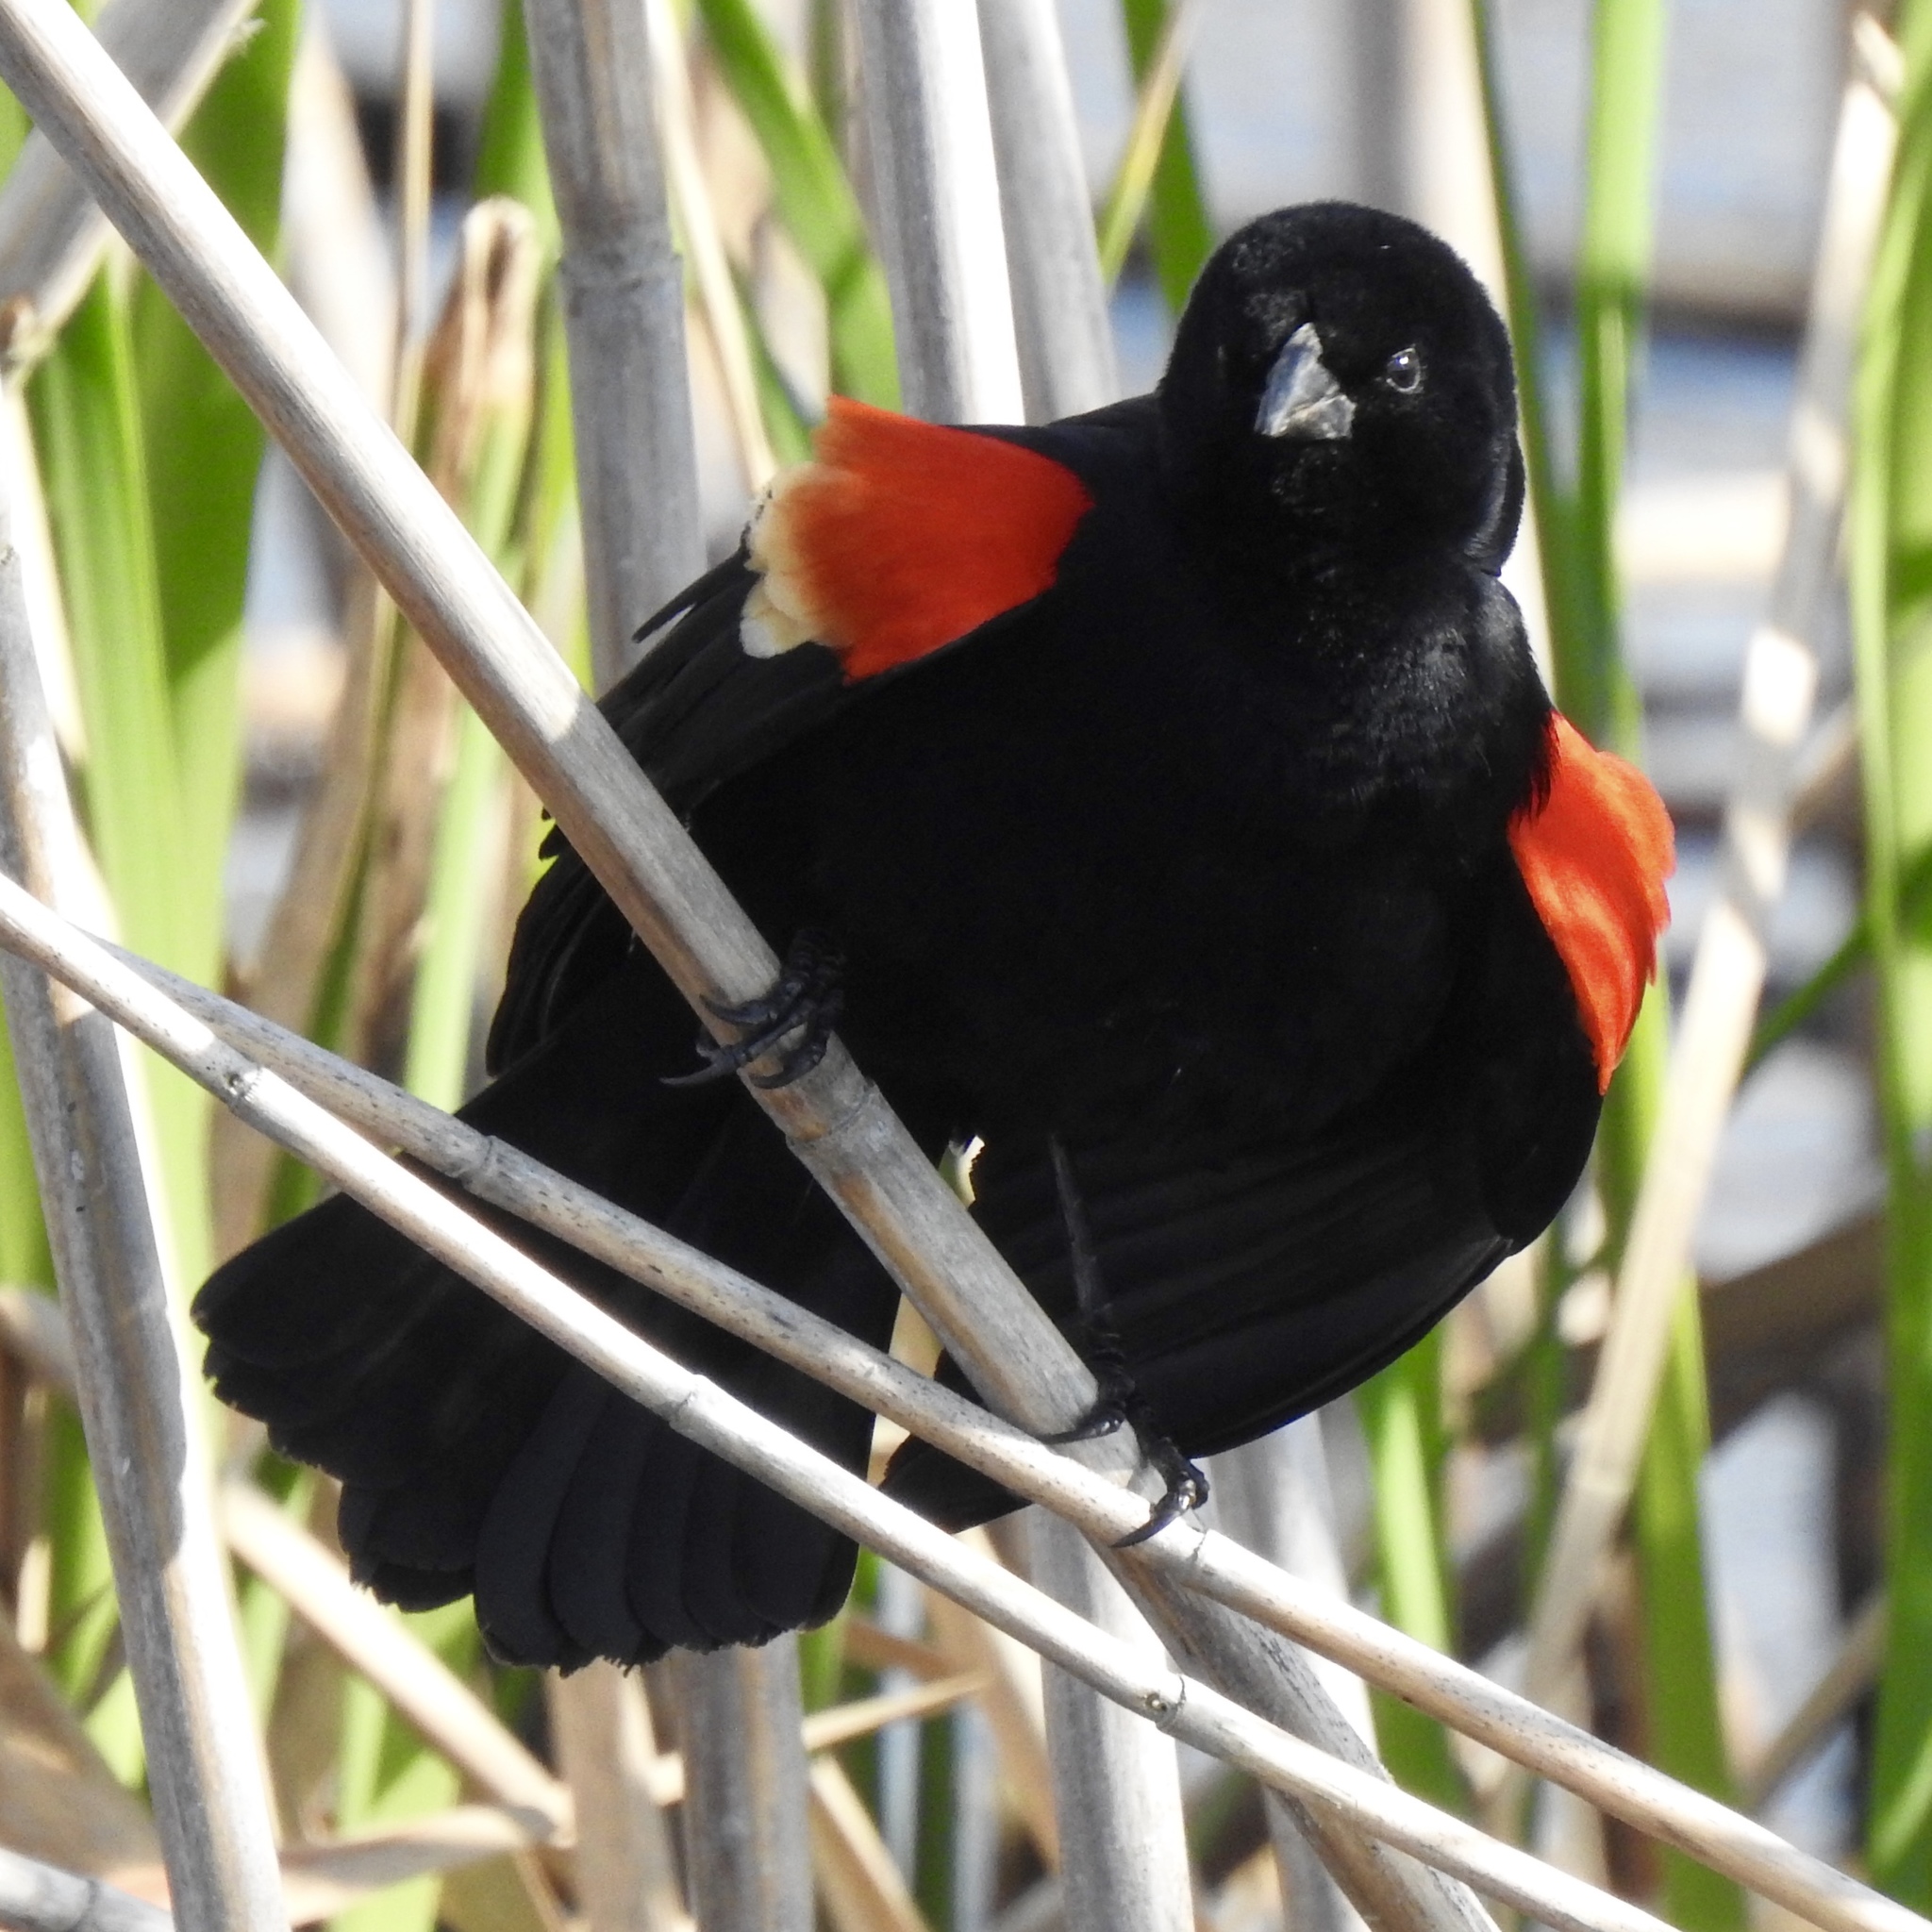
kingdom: Animalia
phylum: Chordata
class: Aves
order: Passeriformes
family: Icteridae
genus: Agelaius
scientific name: Agelaius phoeniceus
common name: Red-winged blackbird
